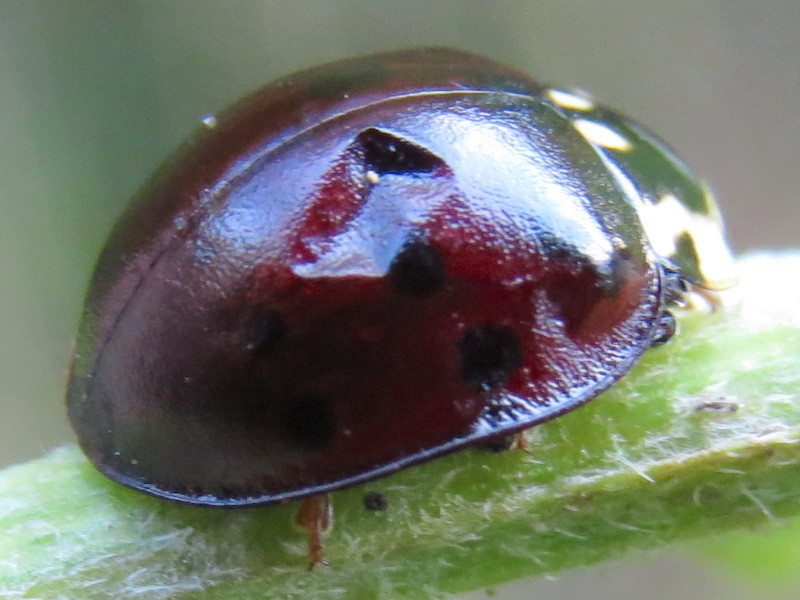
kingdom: Animalia
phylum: Arthropoda
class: Insecta
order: Coleoptera
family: Coccinellidae
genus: Anatis
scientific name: Anatis labiculata
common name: Fifteen-spotted lady beetle
